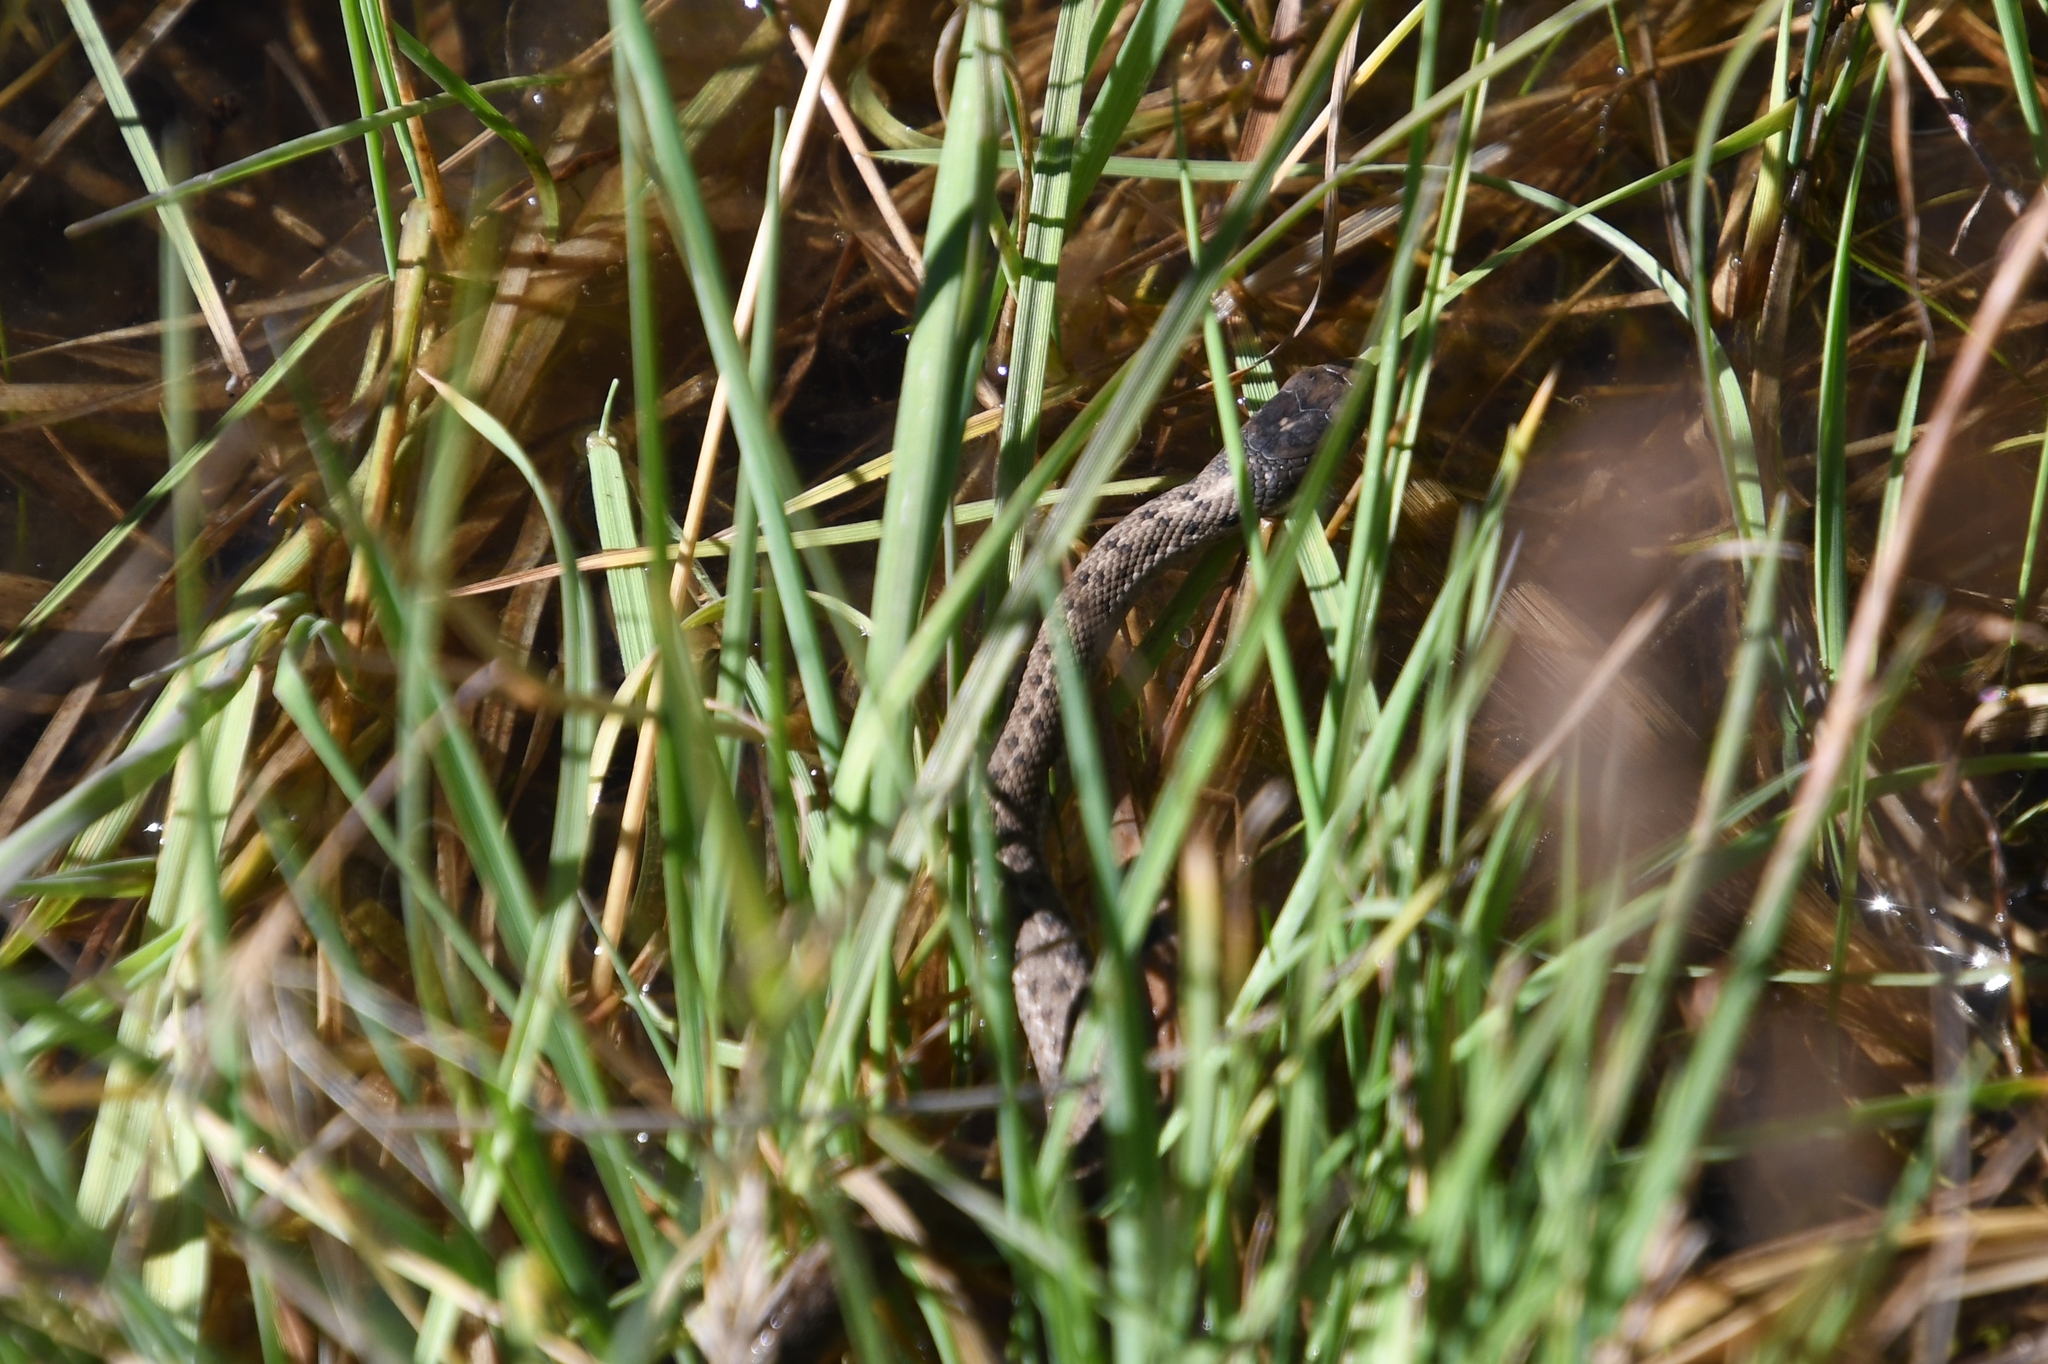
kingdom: Animalia
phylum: Chordata
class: Squamata
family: Colubridae
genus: Thamnophis
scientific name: Thamnophis elegans
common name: Western terrestrial garter snake
